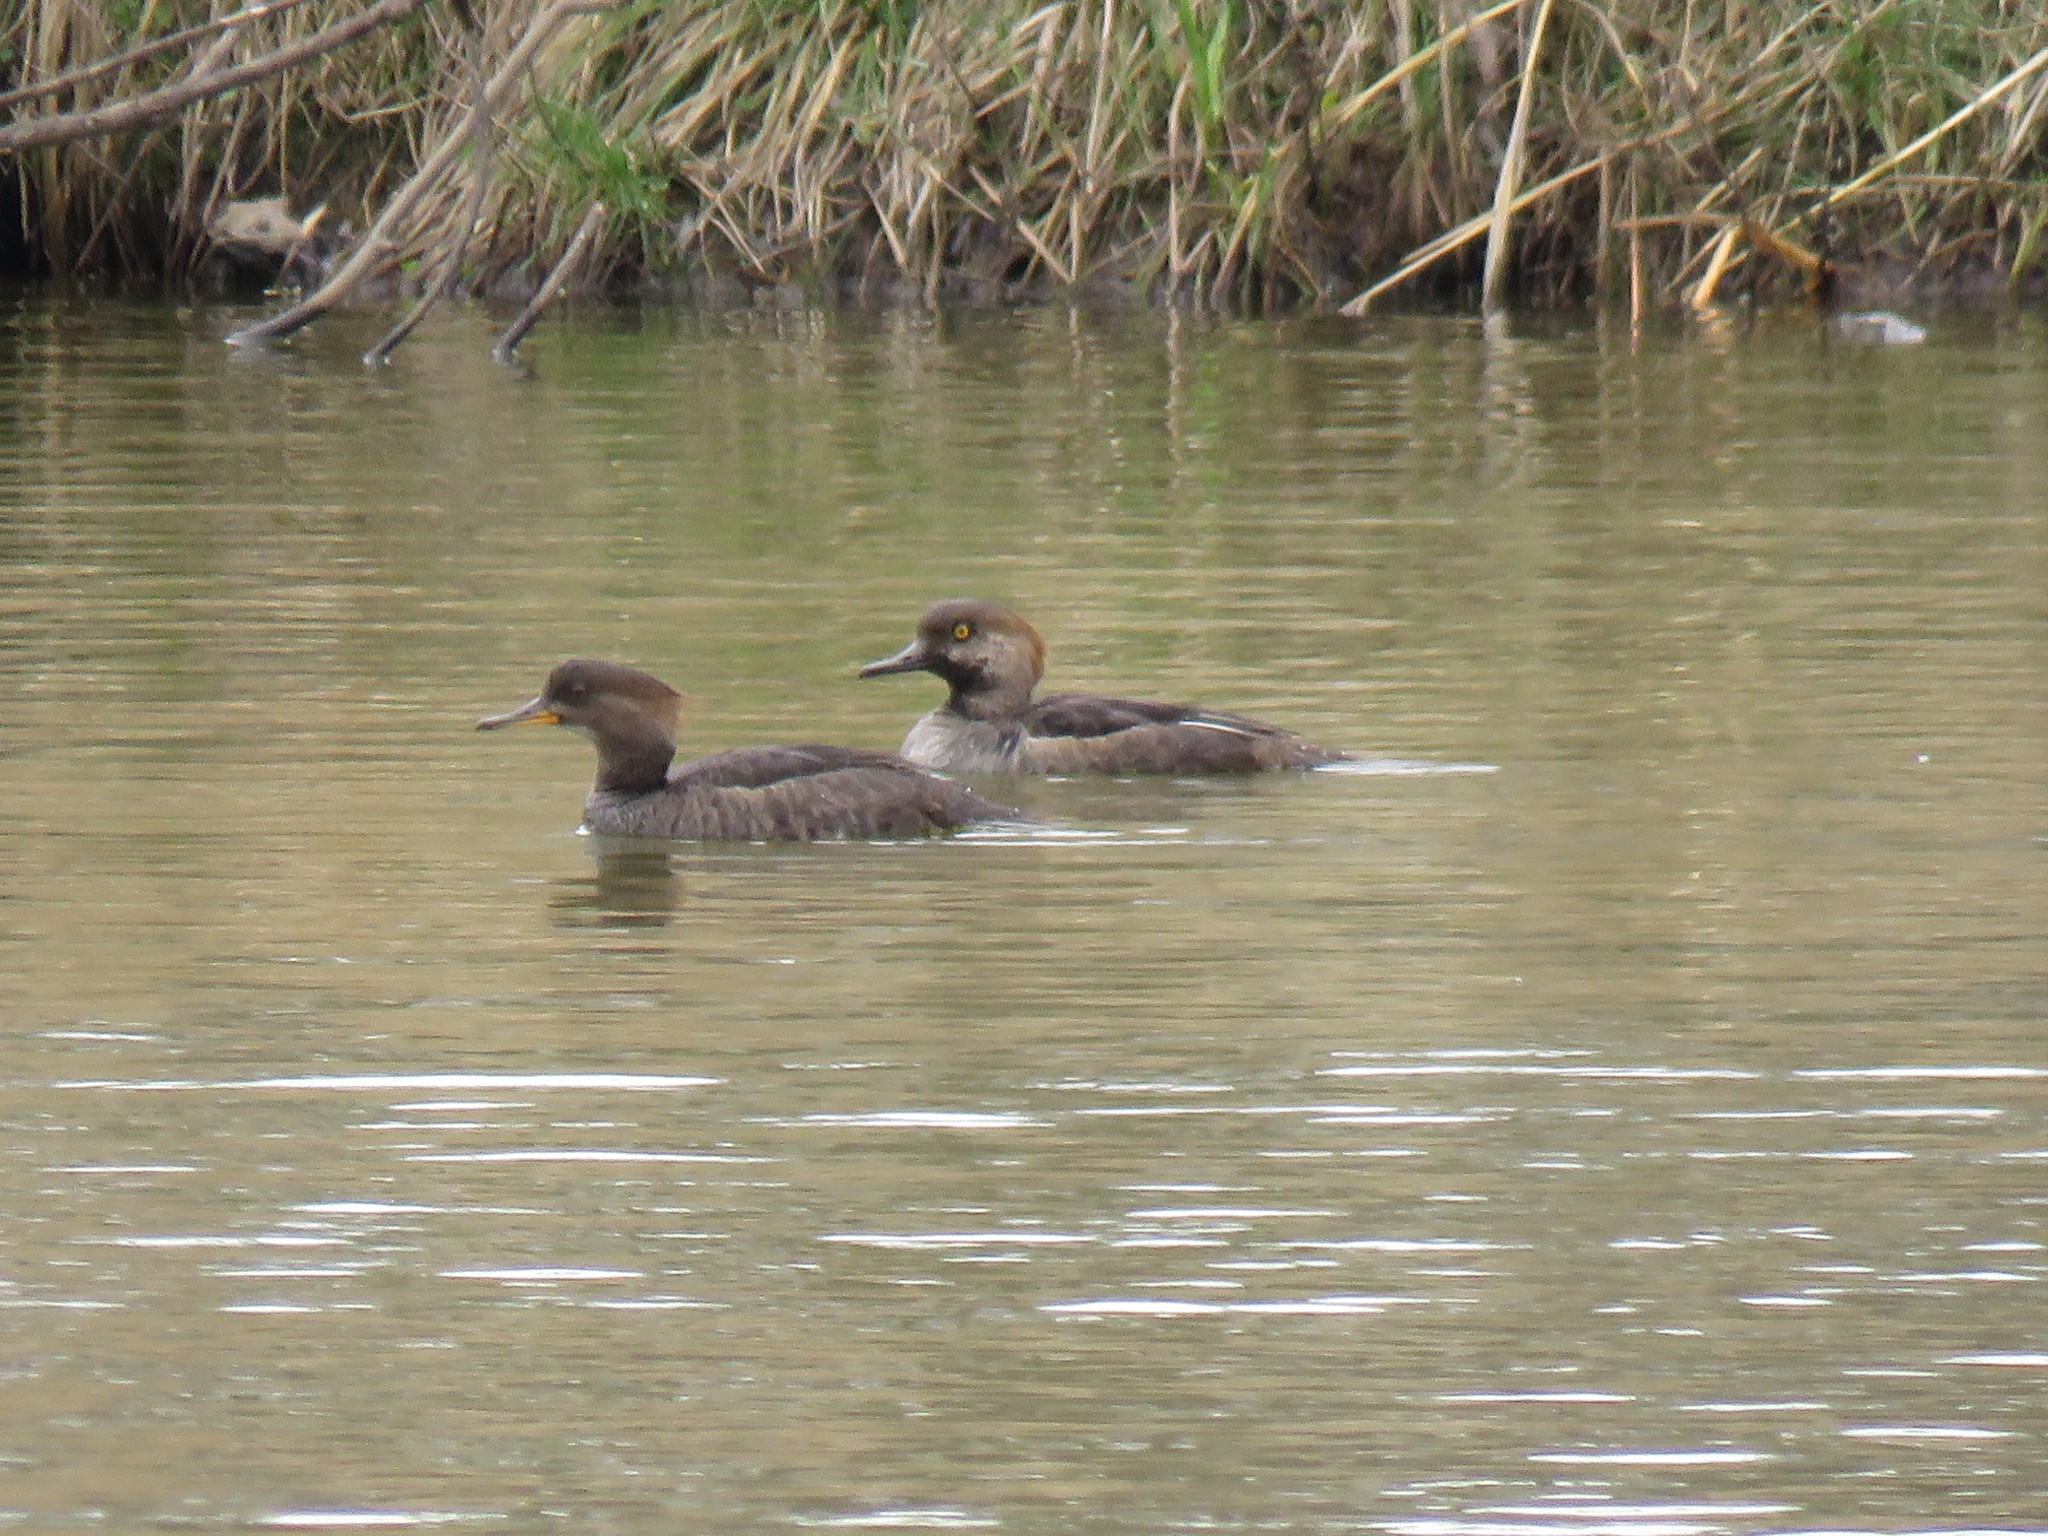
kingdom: Animalia
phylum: Chordata
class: Aves
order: Anseriformes
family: Anatidae
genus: Lophodytes
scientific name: Lophodytes cucullatus
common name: Hooded merganser
